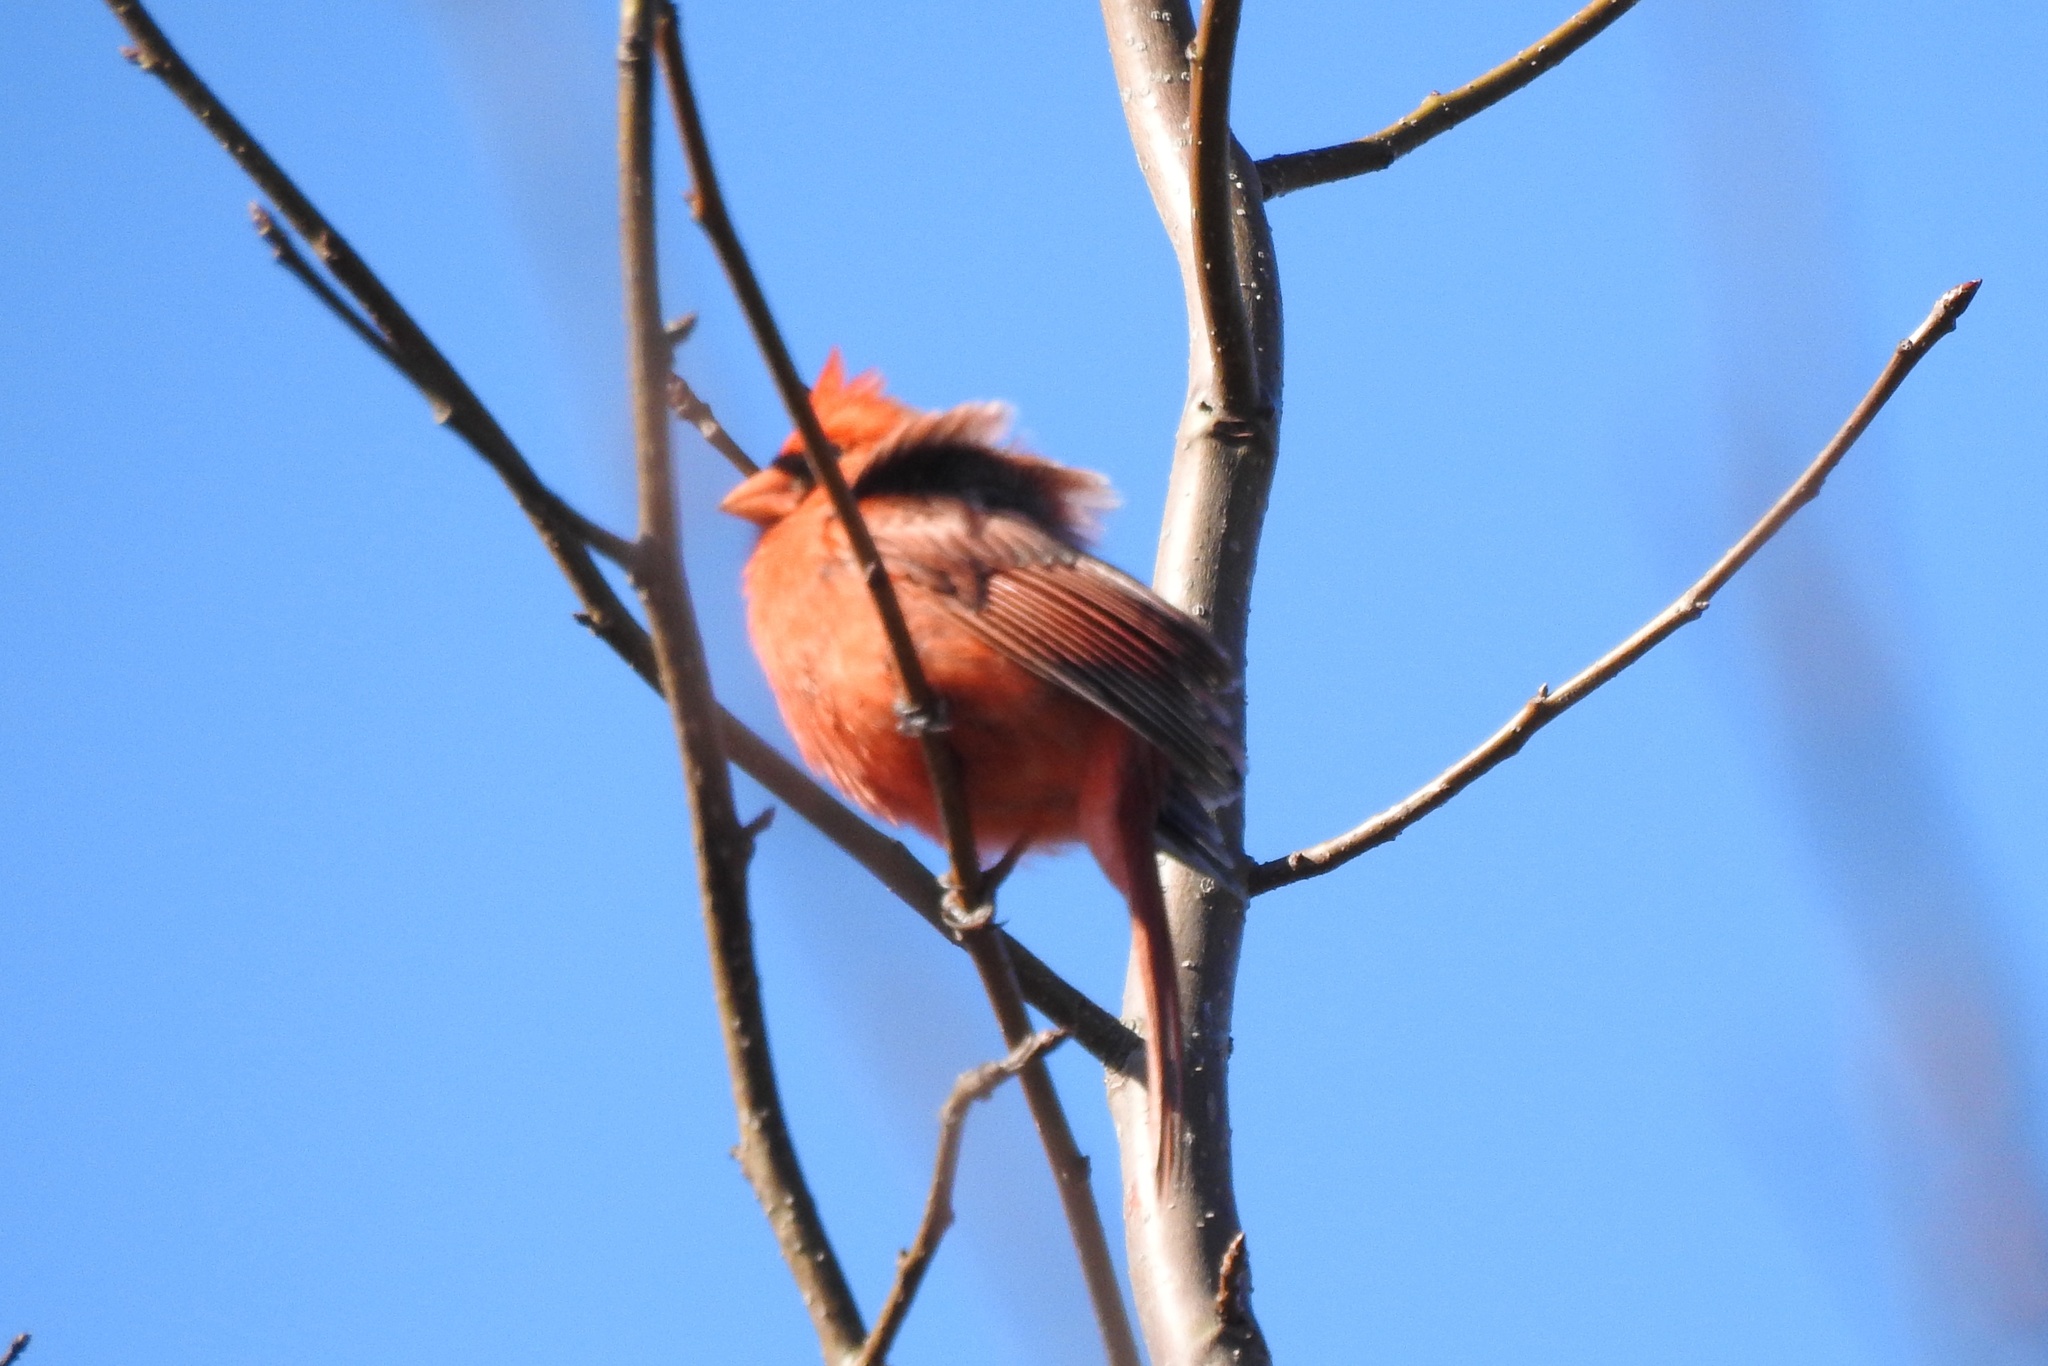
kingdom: Animalia
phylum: Chordata
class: Aves
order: Passeriformes
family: Cardinalidae
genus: Cardinalis
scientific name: Cardinalis cardinalis
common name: Northern cardinal
